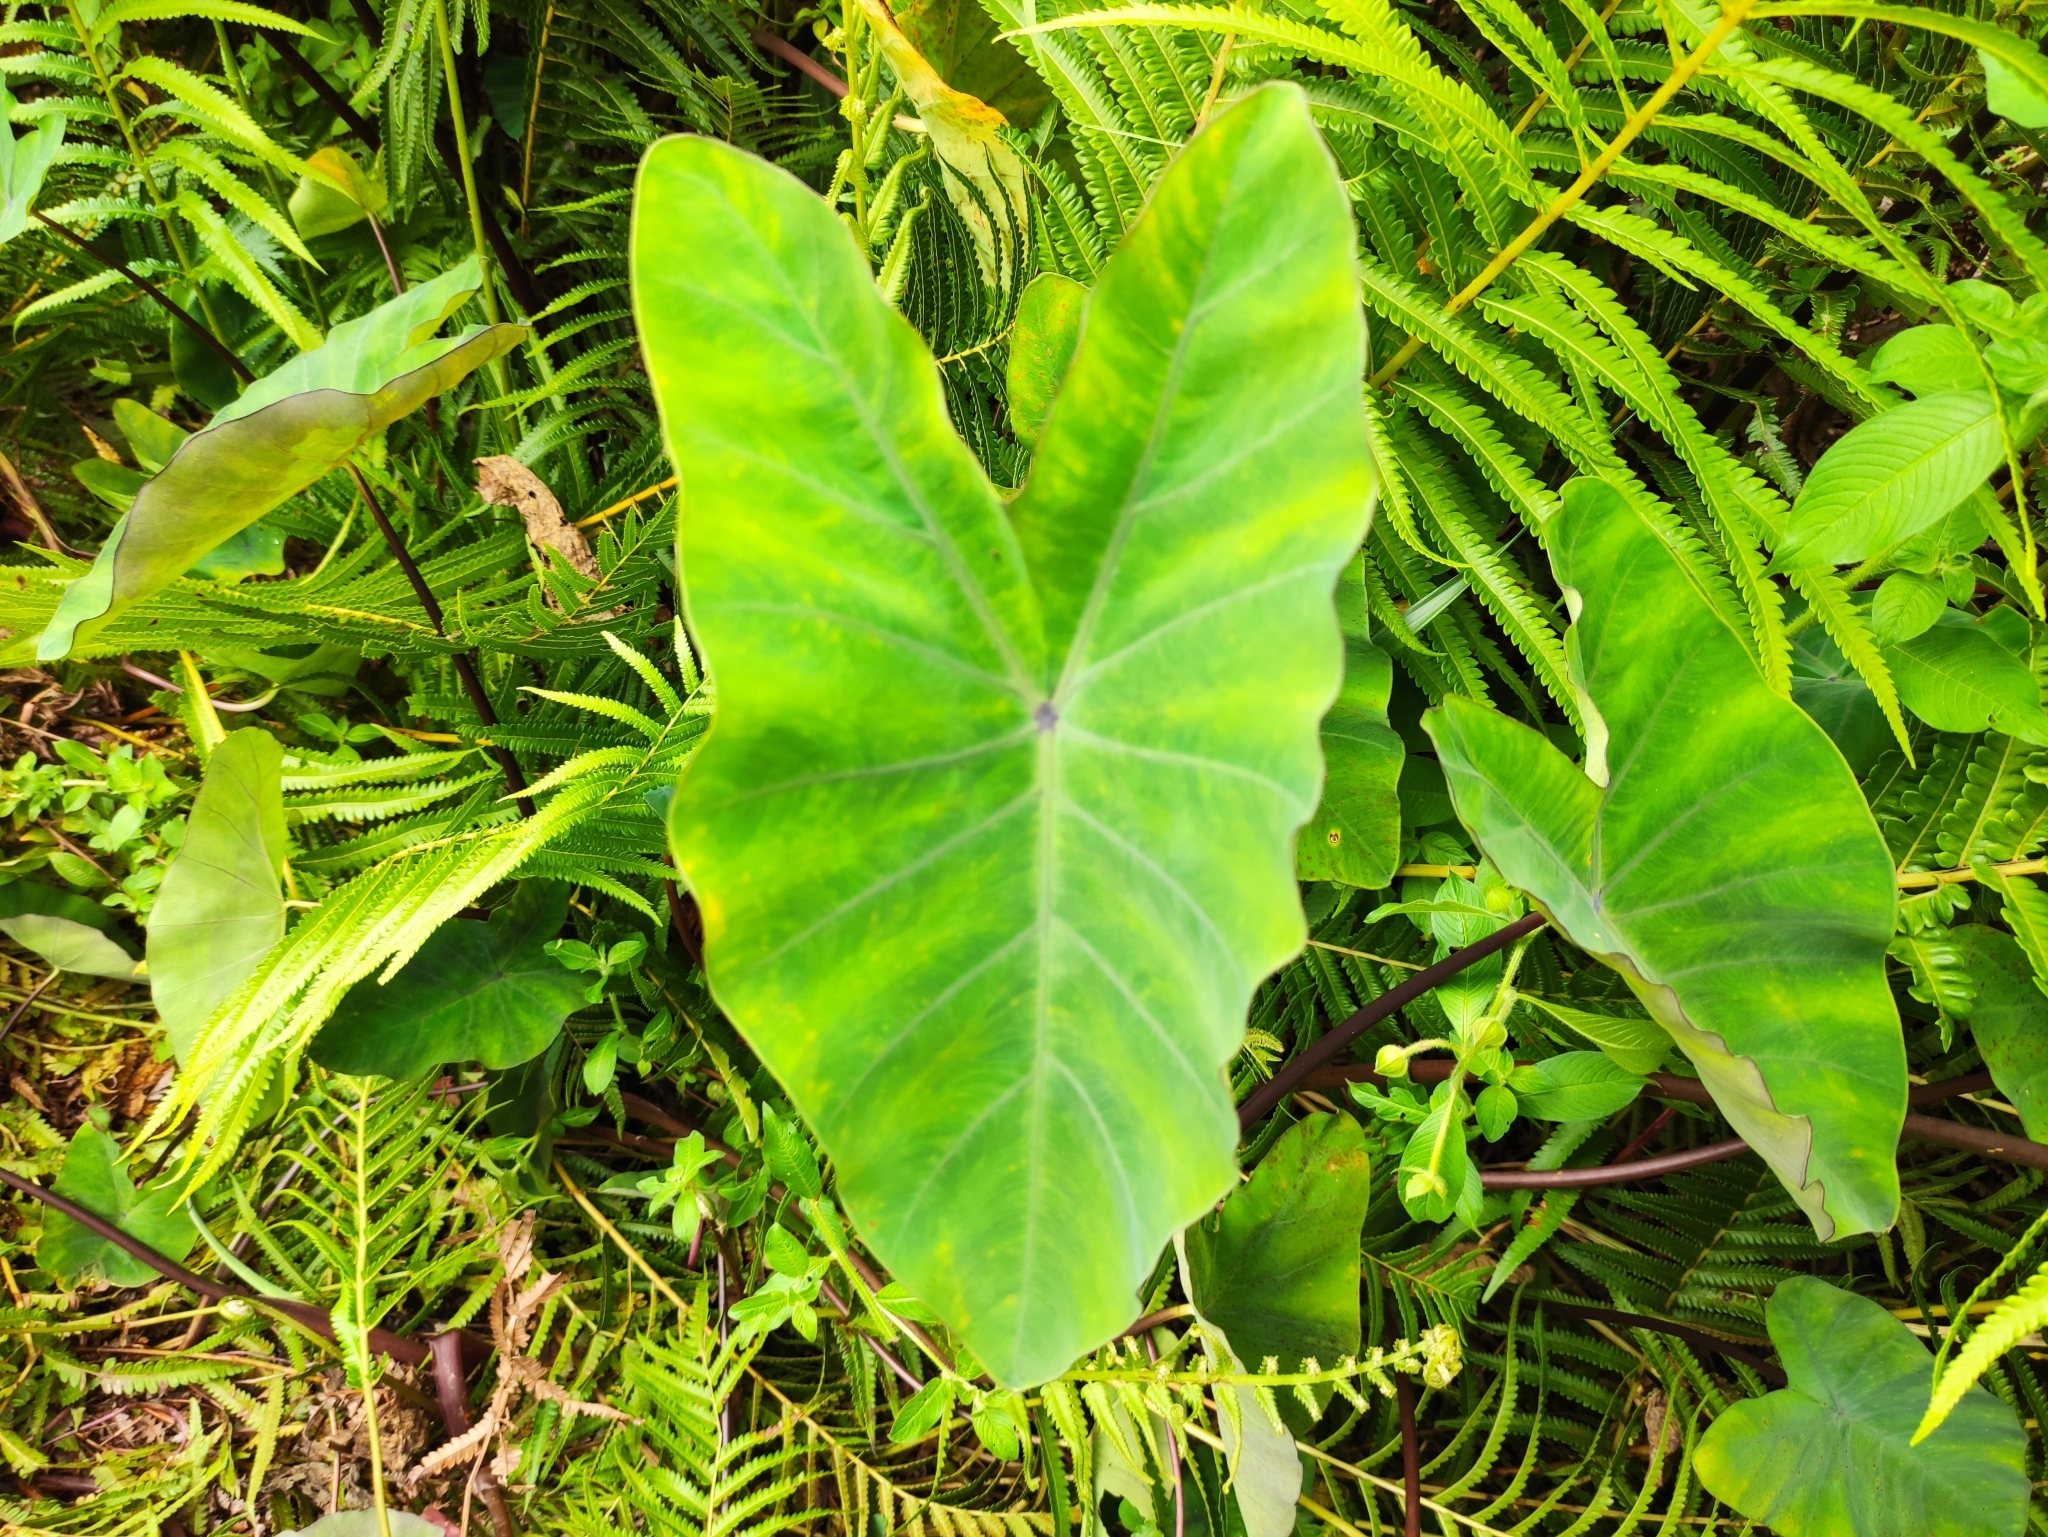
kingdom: Plantae
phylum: Tracheophyta
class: Liliopsida
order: Alismatales
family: Araceae
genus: Colocasia
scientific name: Colocasia esculenta
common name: Taro
